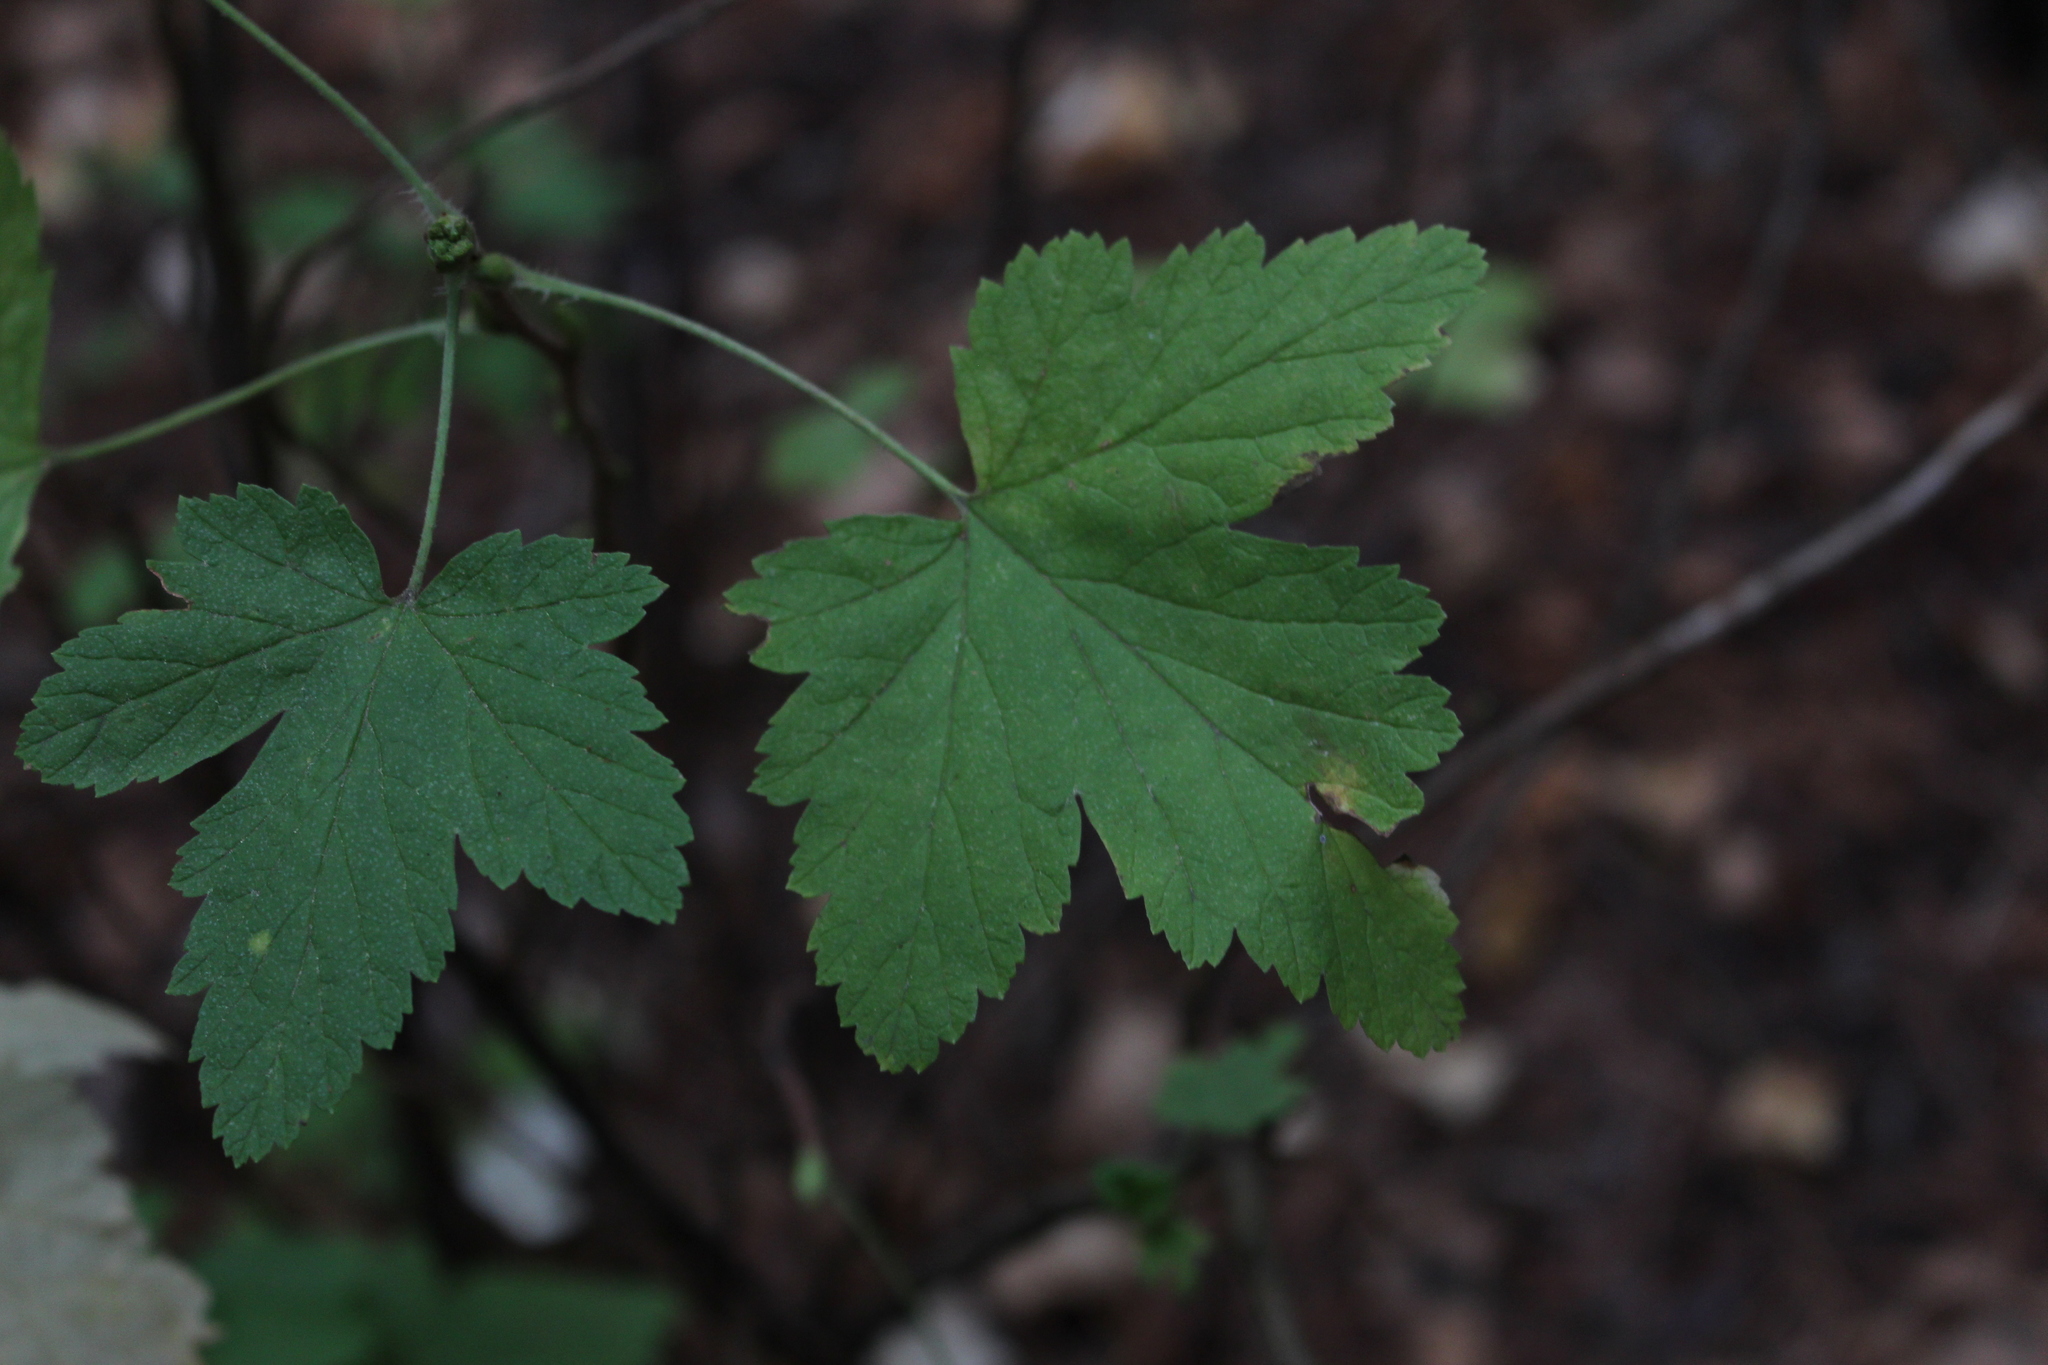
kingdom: Plantae
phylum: Tracheophyta
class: Magnoliopsida
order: Saxifragales
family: Grossulariaceae
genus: Ribes
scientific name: Ribes sanguineum
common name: Flowering currant
